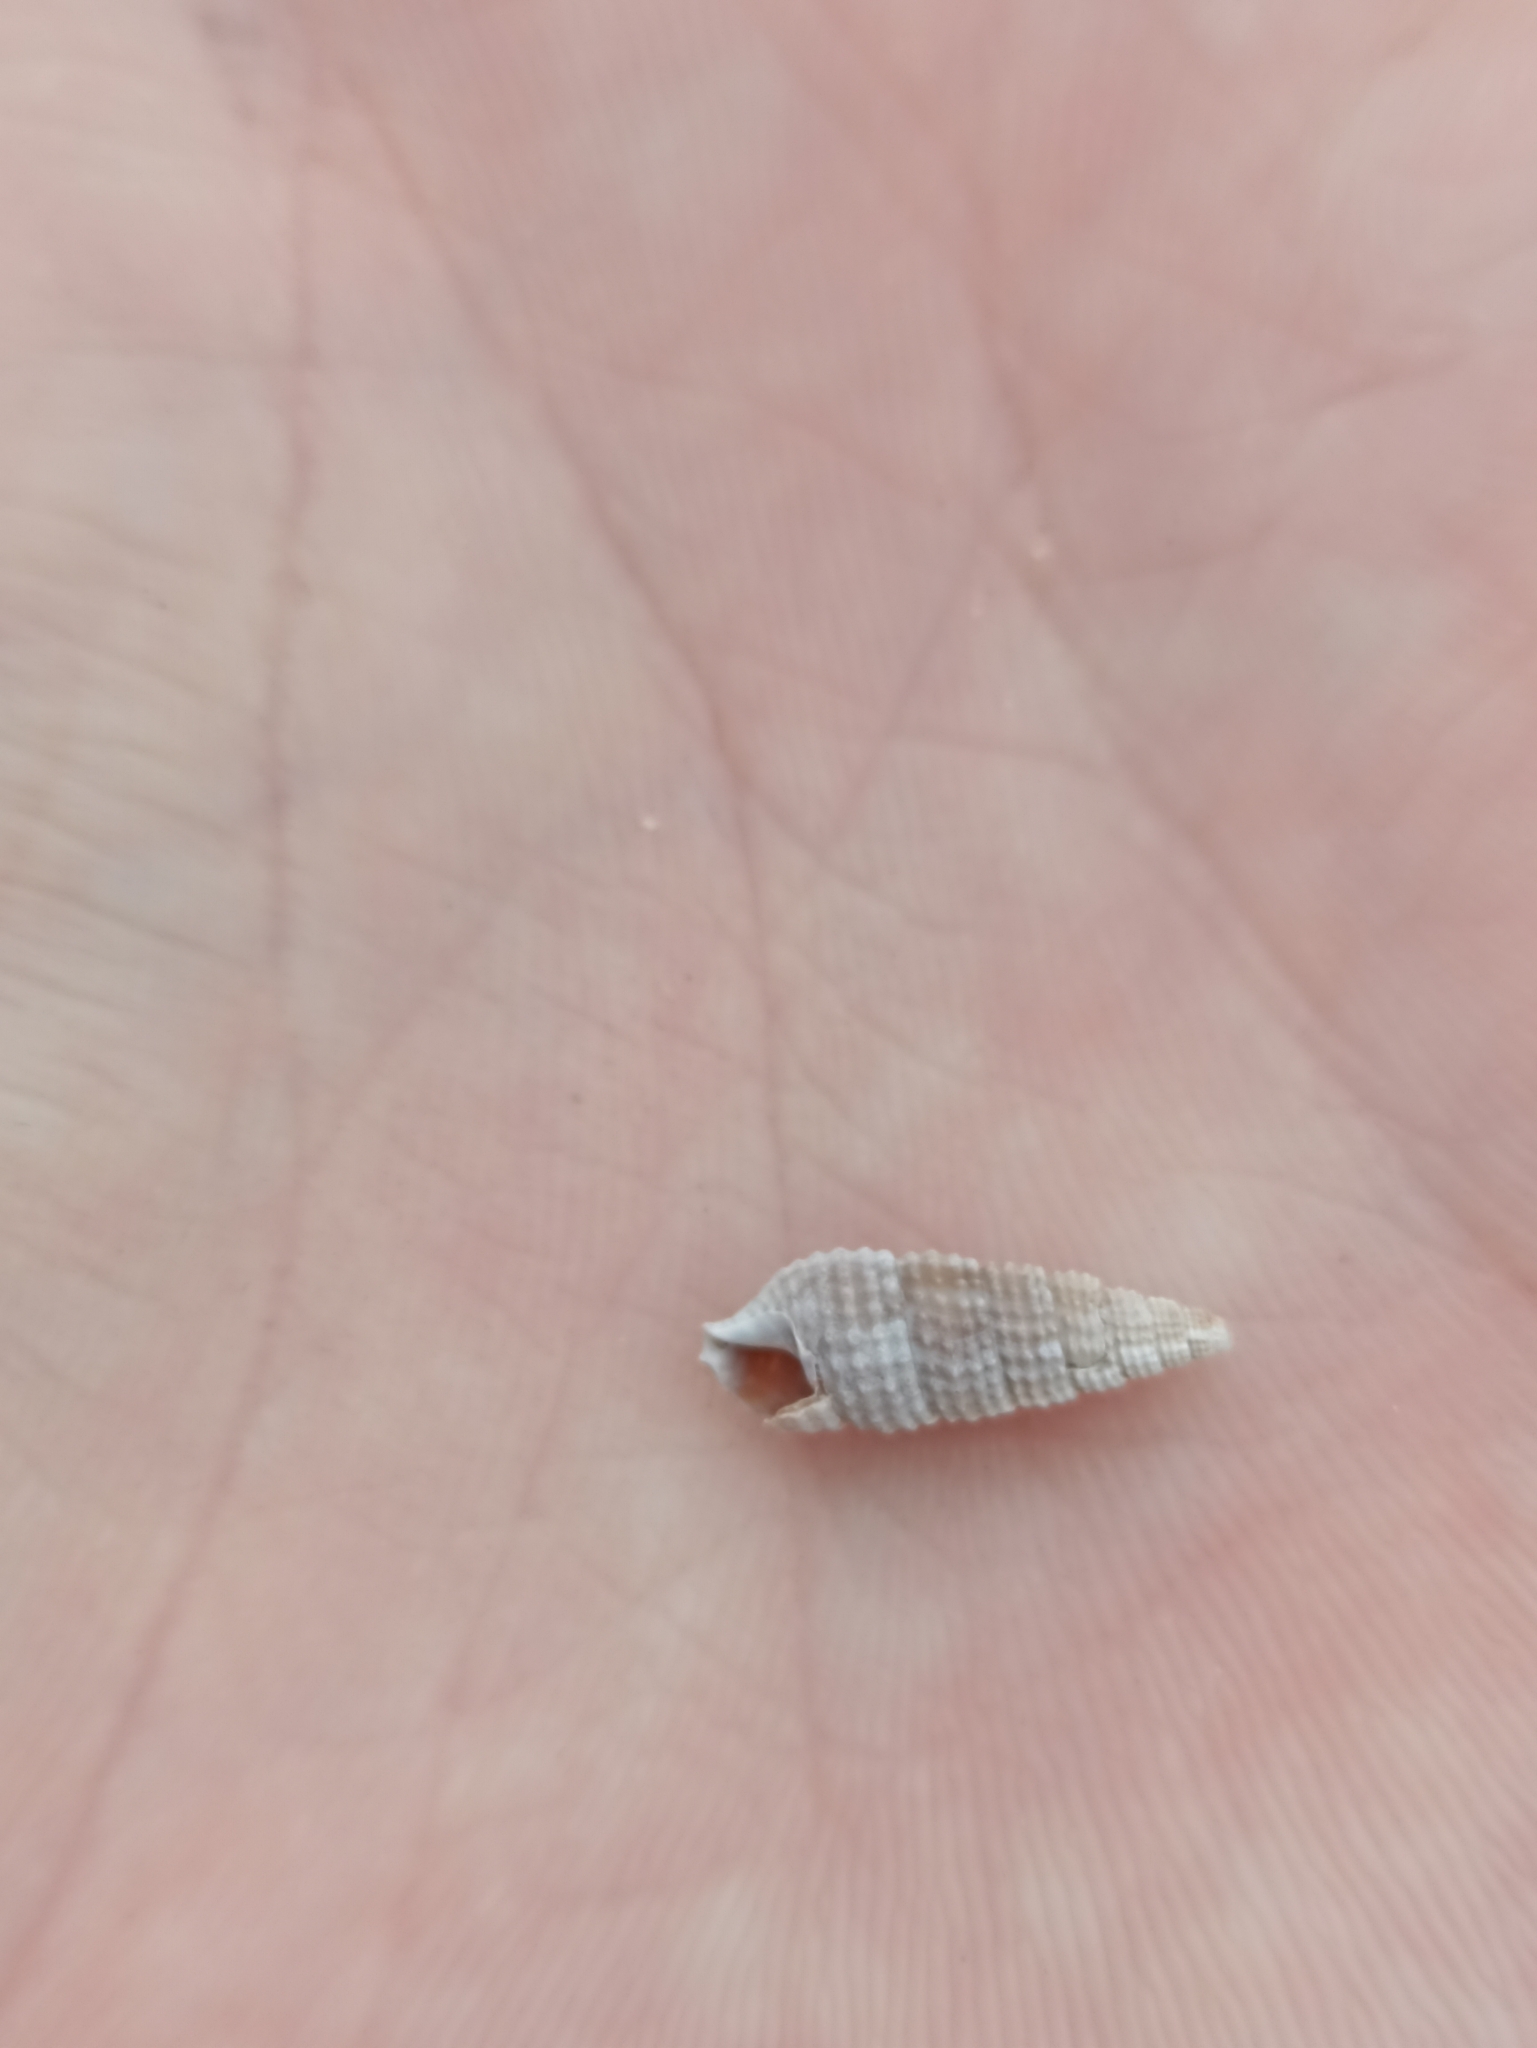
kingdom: Animalia
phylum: Mollusca
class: Gastropoda
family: Cerithiidae
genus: Cacozeliana
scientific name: Cacozeliana granarium
